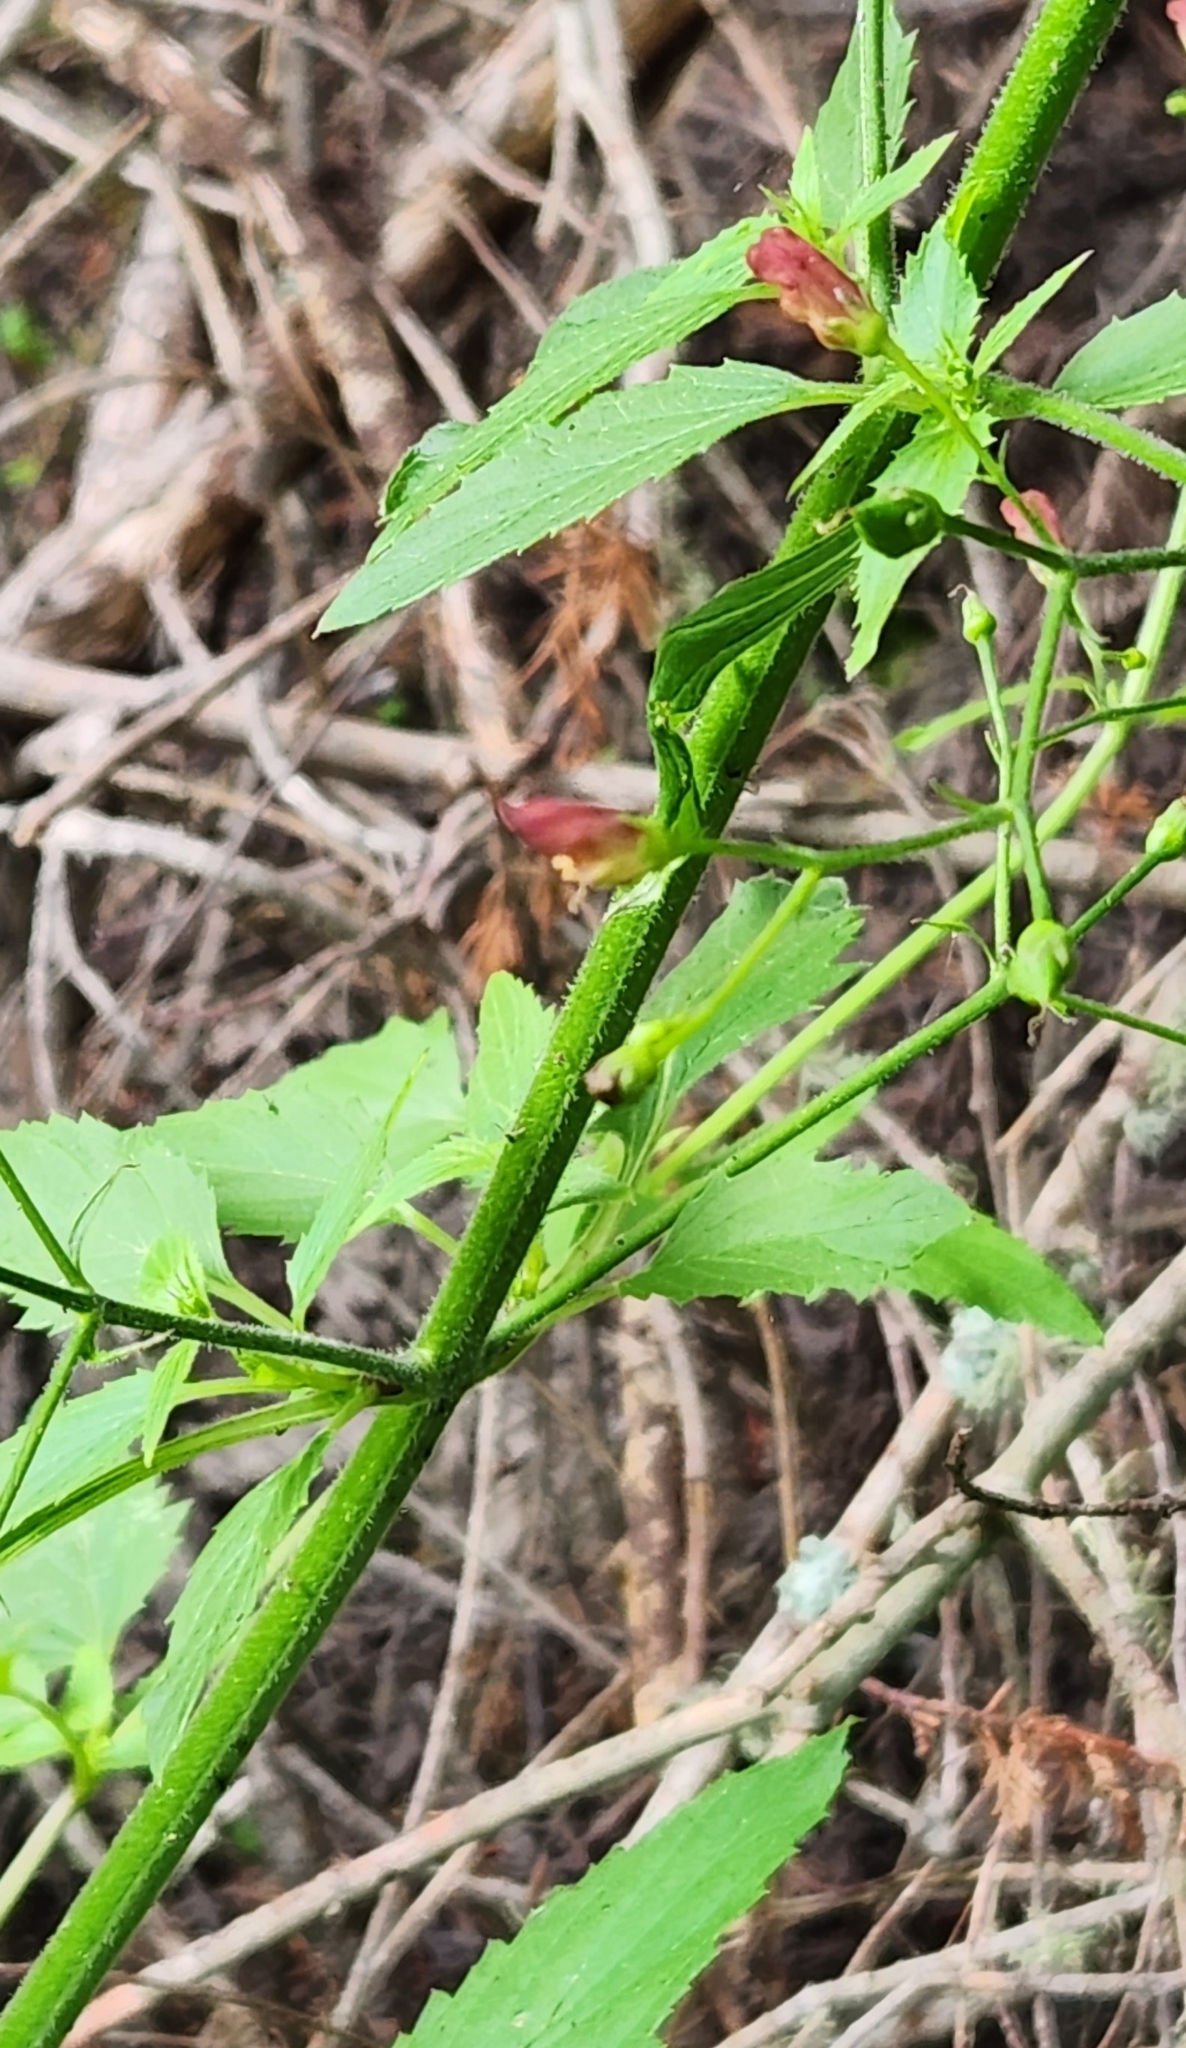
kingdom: Plantae
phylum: Tracheophyta
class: Magnoliopsida
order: Lamiales
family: Scrophulariaceae
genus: Scrophularia
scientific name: Scrophularia californica
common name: California figwort
